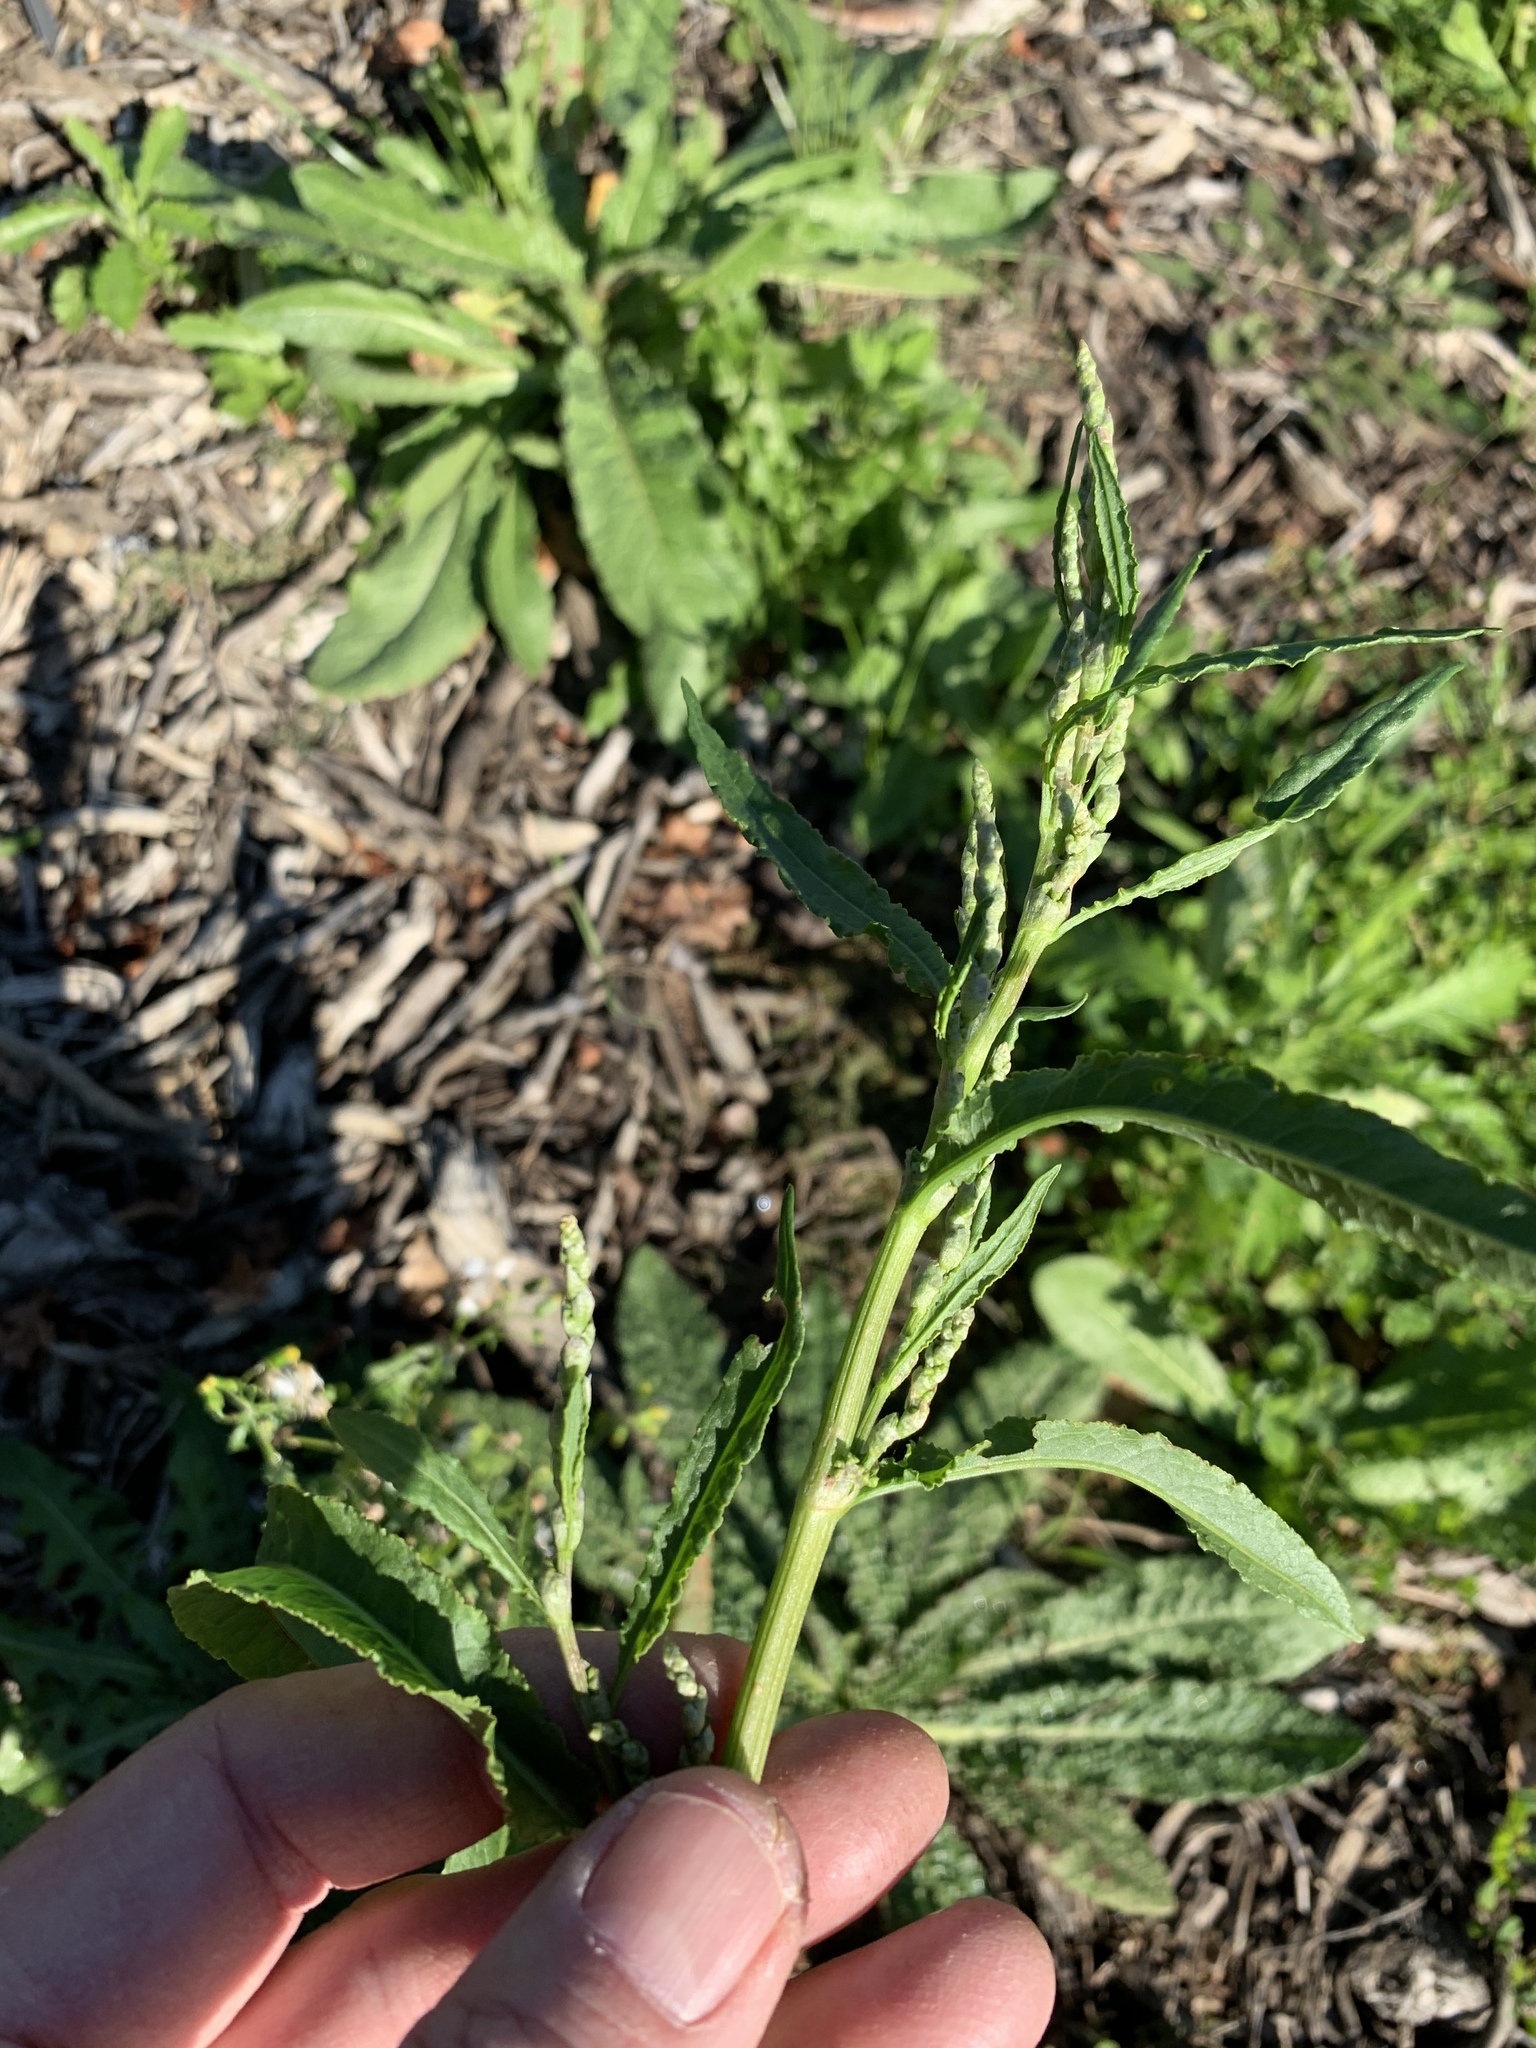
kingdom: Plantae
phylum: Tracheophyta
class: Magnoliopsida
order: Caryophyllales
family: Polygonaceae
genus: Rumex
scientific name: Rumex crispus
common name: Curled dock
